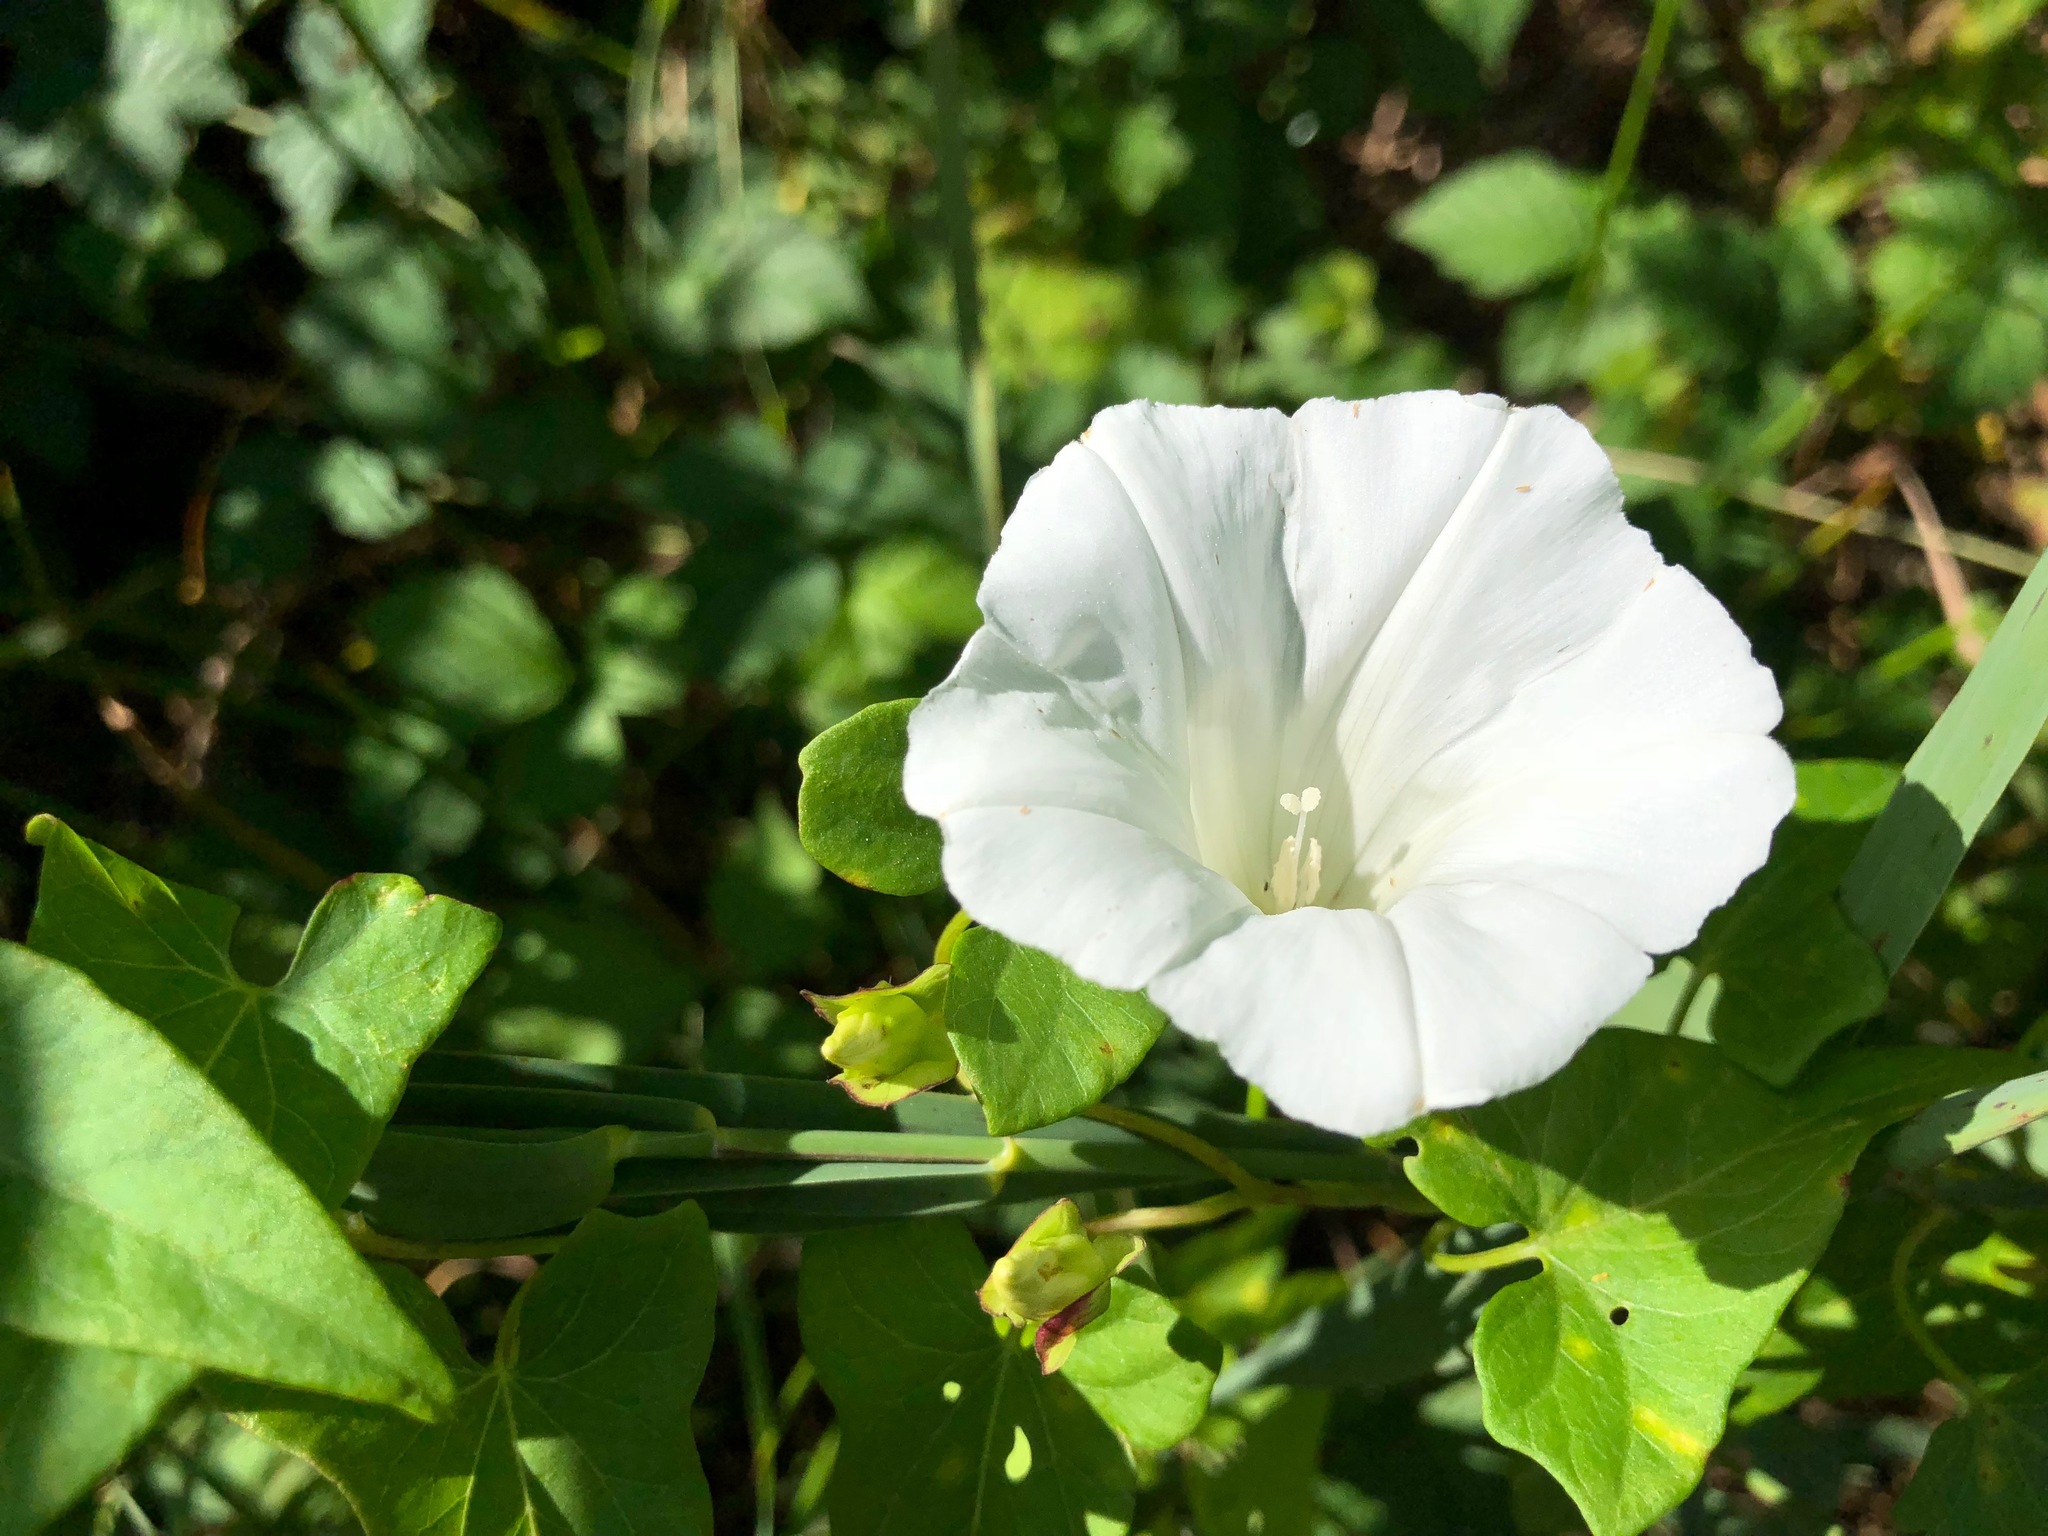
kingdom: Plantae
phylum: Tracheophyta
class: Magnoliopsida
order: Solanales
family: Convolvulaceae
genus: Calystegia
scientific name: Calystegia sepium
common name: Hedge bindweed
